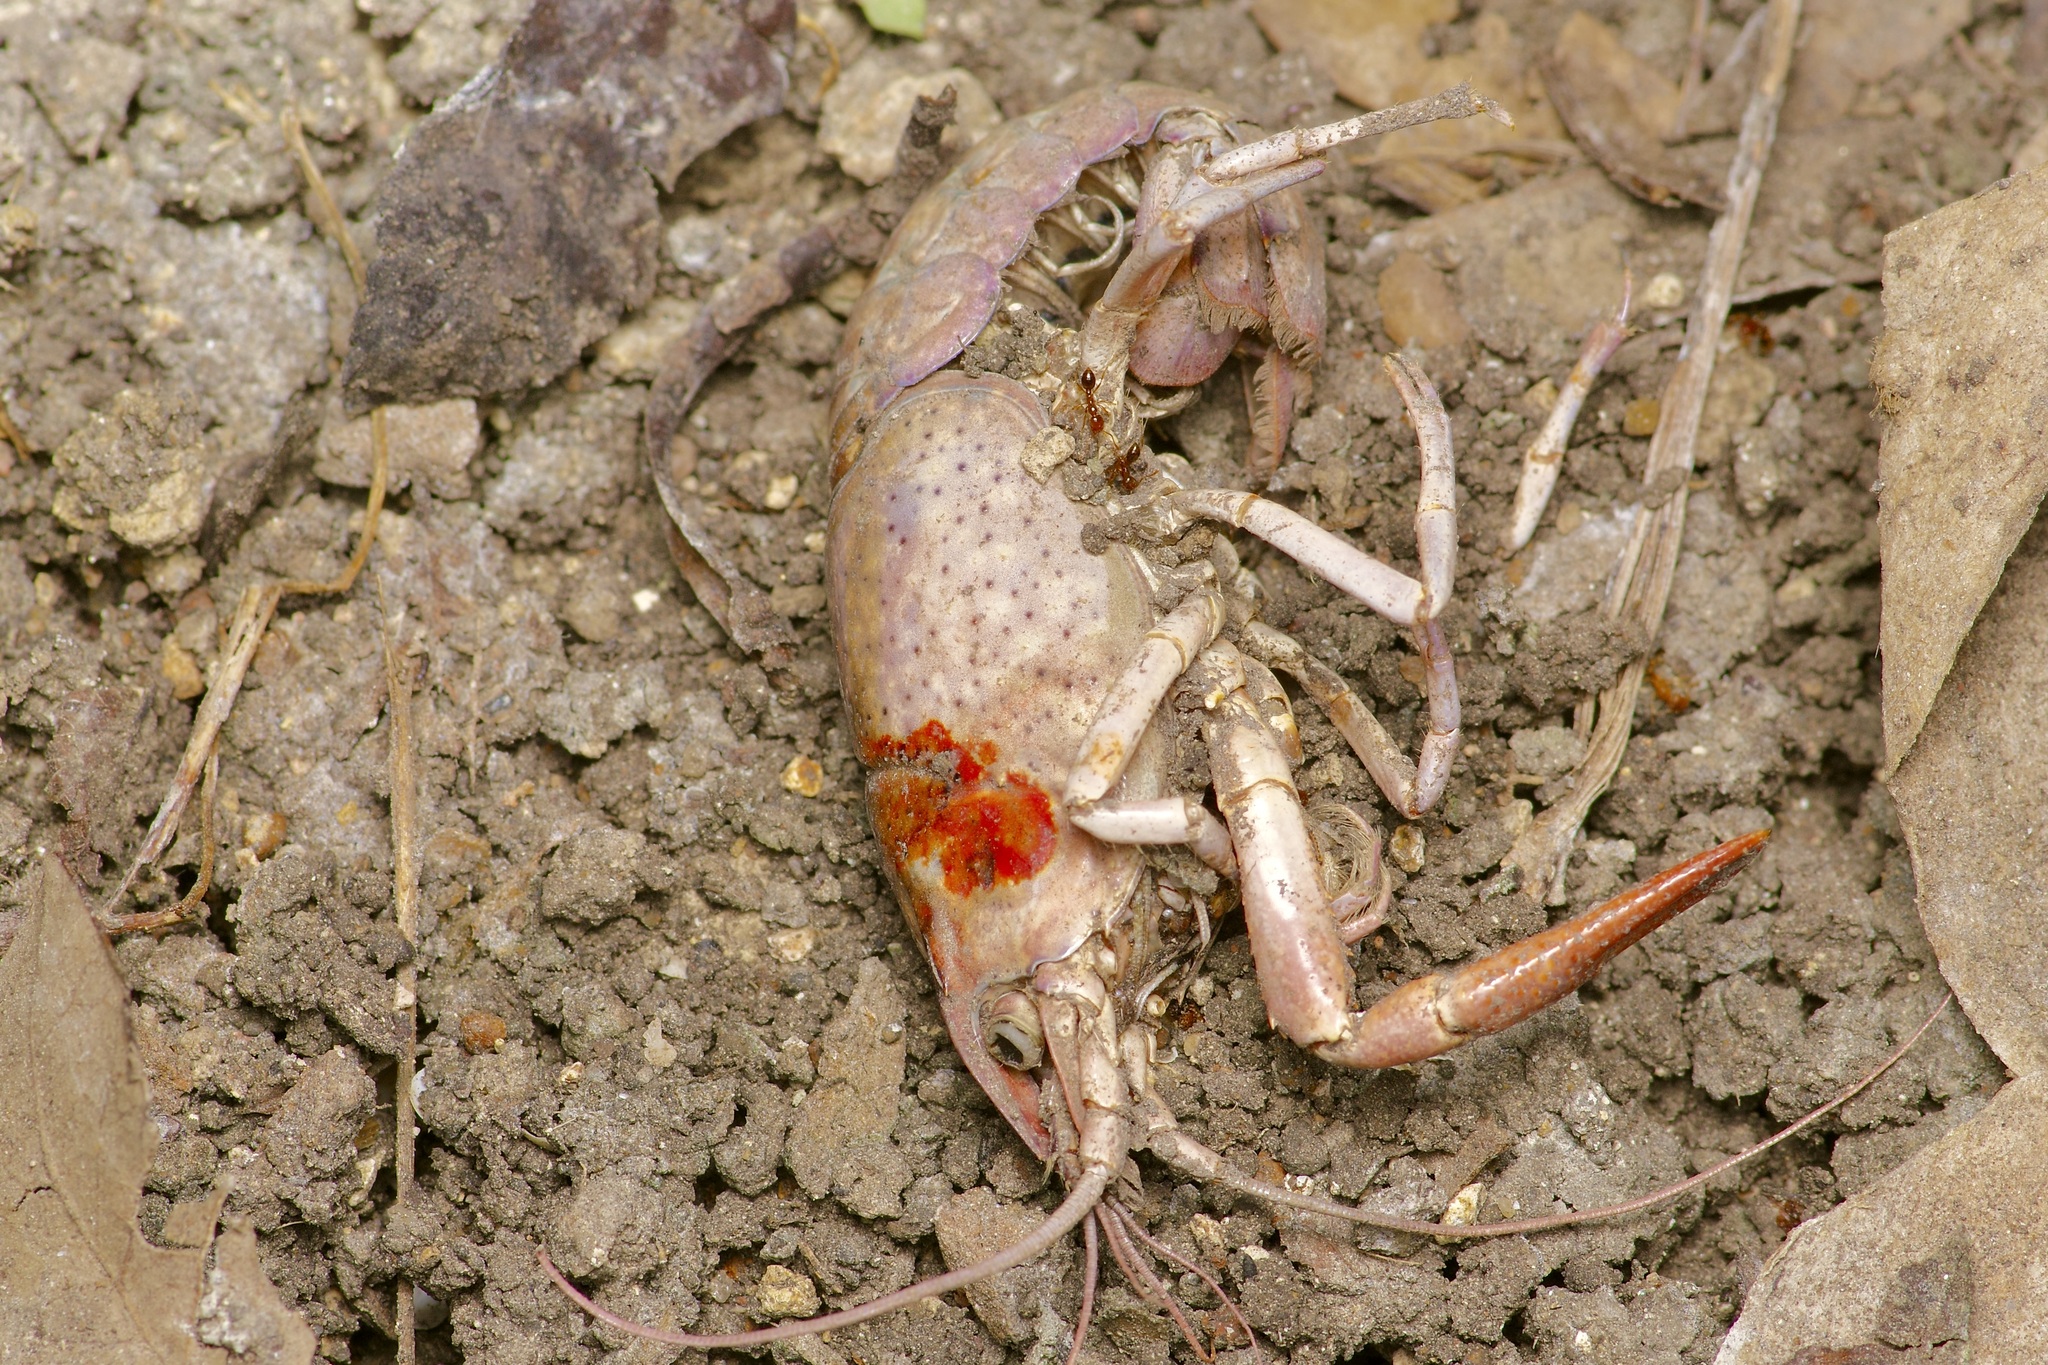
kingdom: Animalia
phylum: Arthropoda
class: Malacostraca
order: Decapoda
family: Cambaridae
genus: Procambarus
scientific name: Procambarus clarkii
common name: Red swamp crayfish
